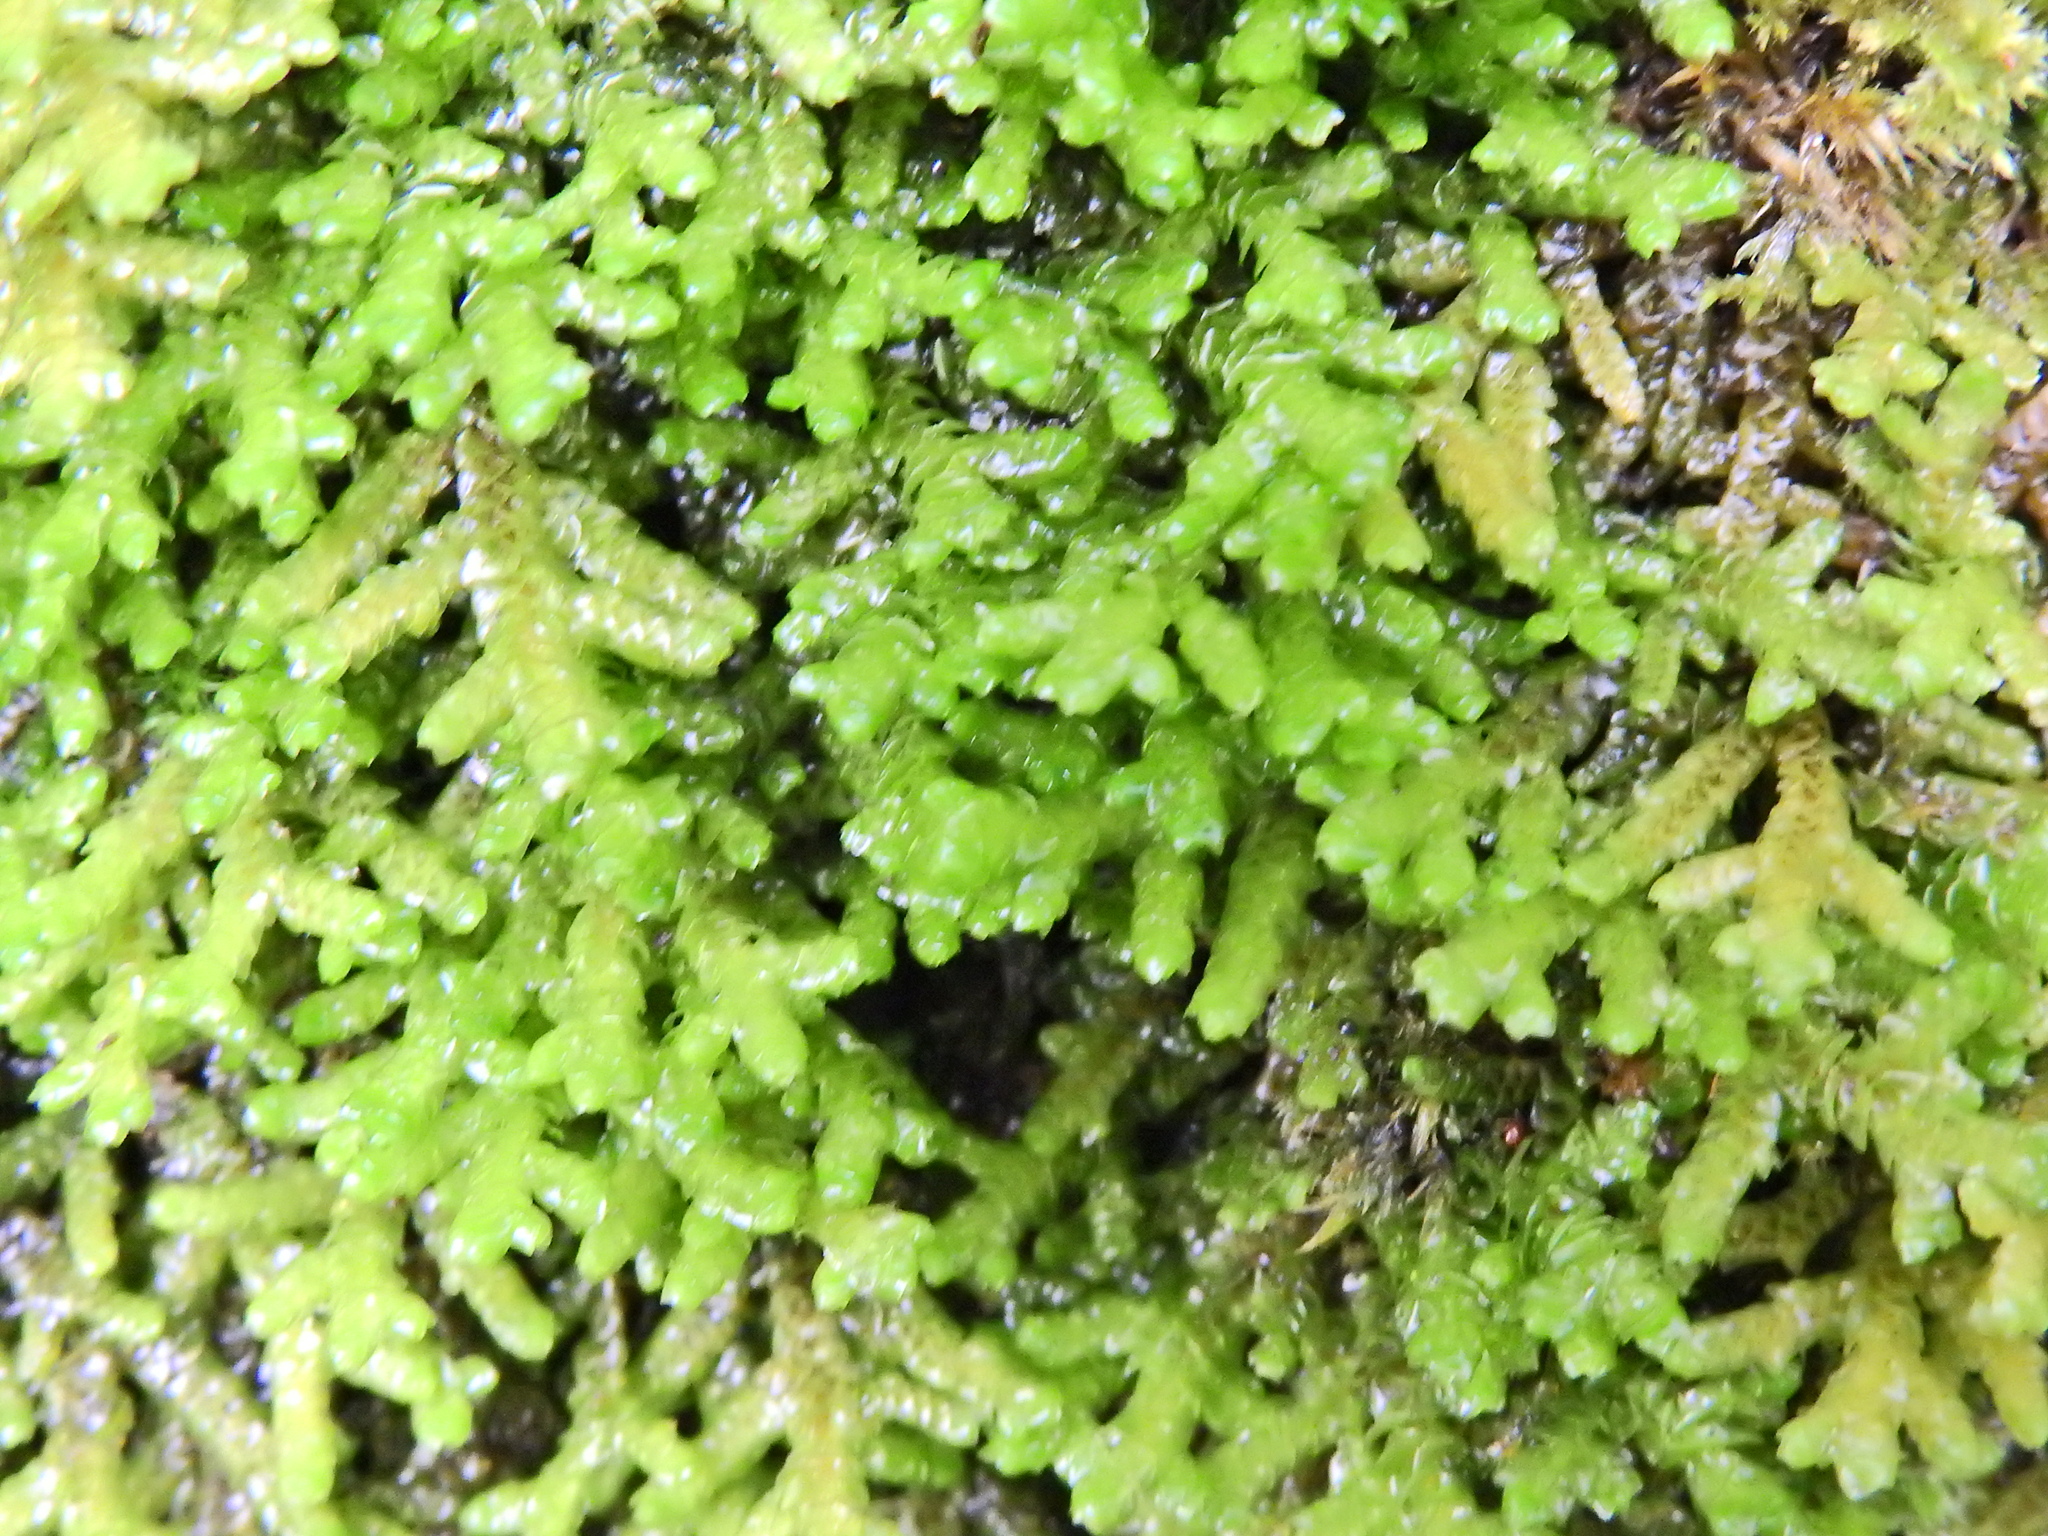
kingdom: Plantae
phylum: Marchantiophyta
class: Jungermanniopsida
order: Porellales
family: Porellaceae
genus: Porella
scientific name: Porella platyphylla
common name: Wall scalewort
